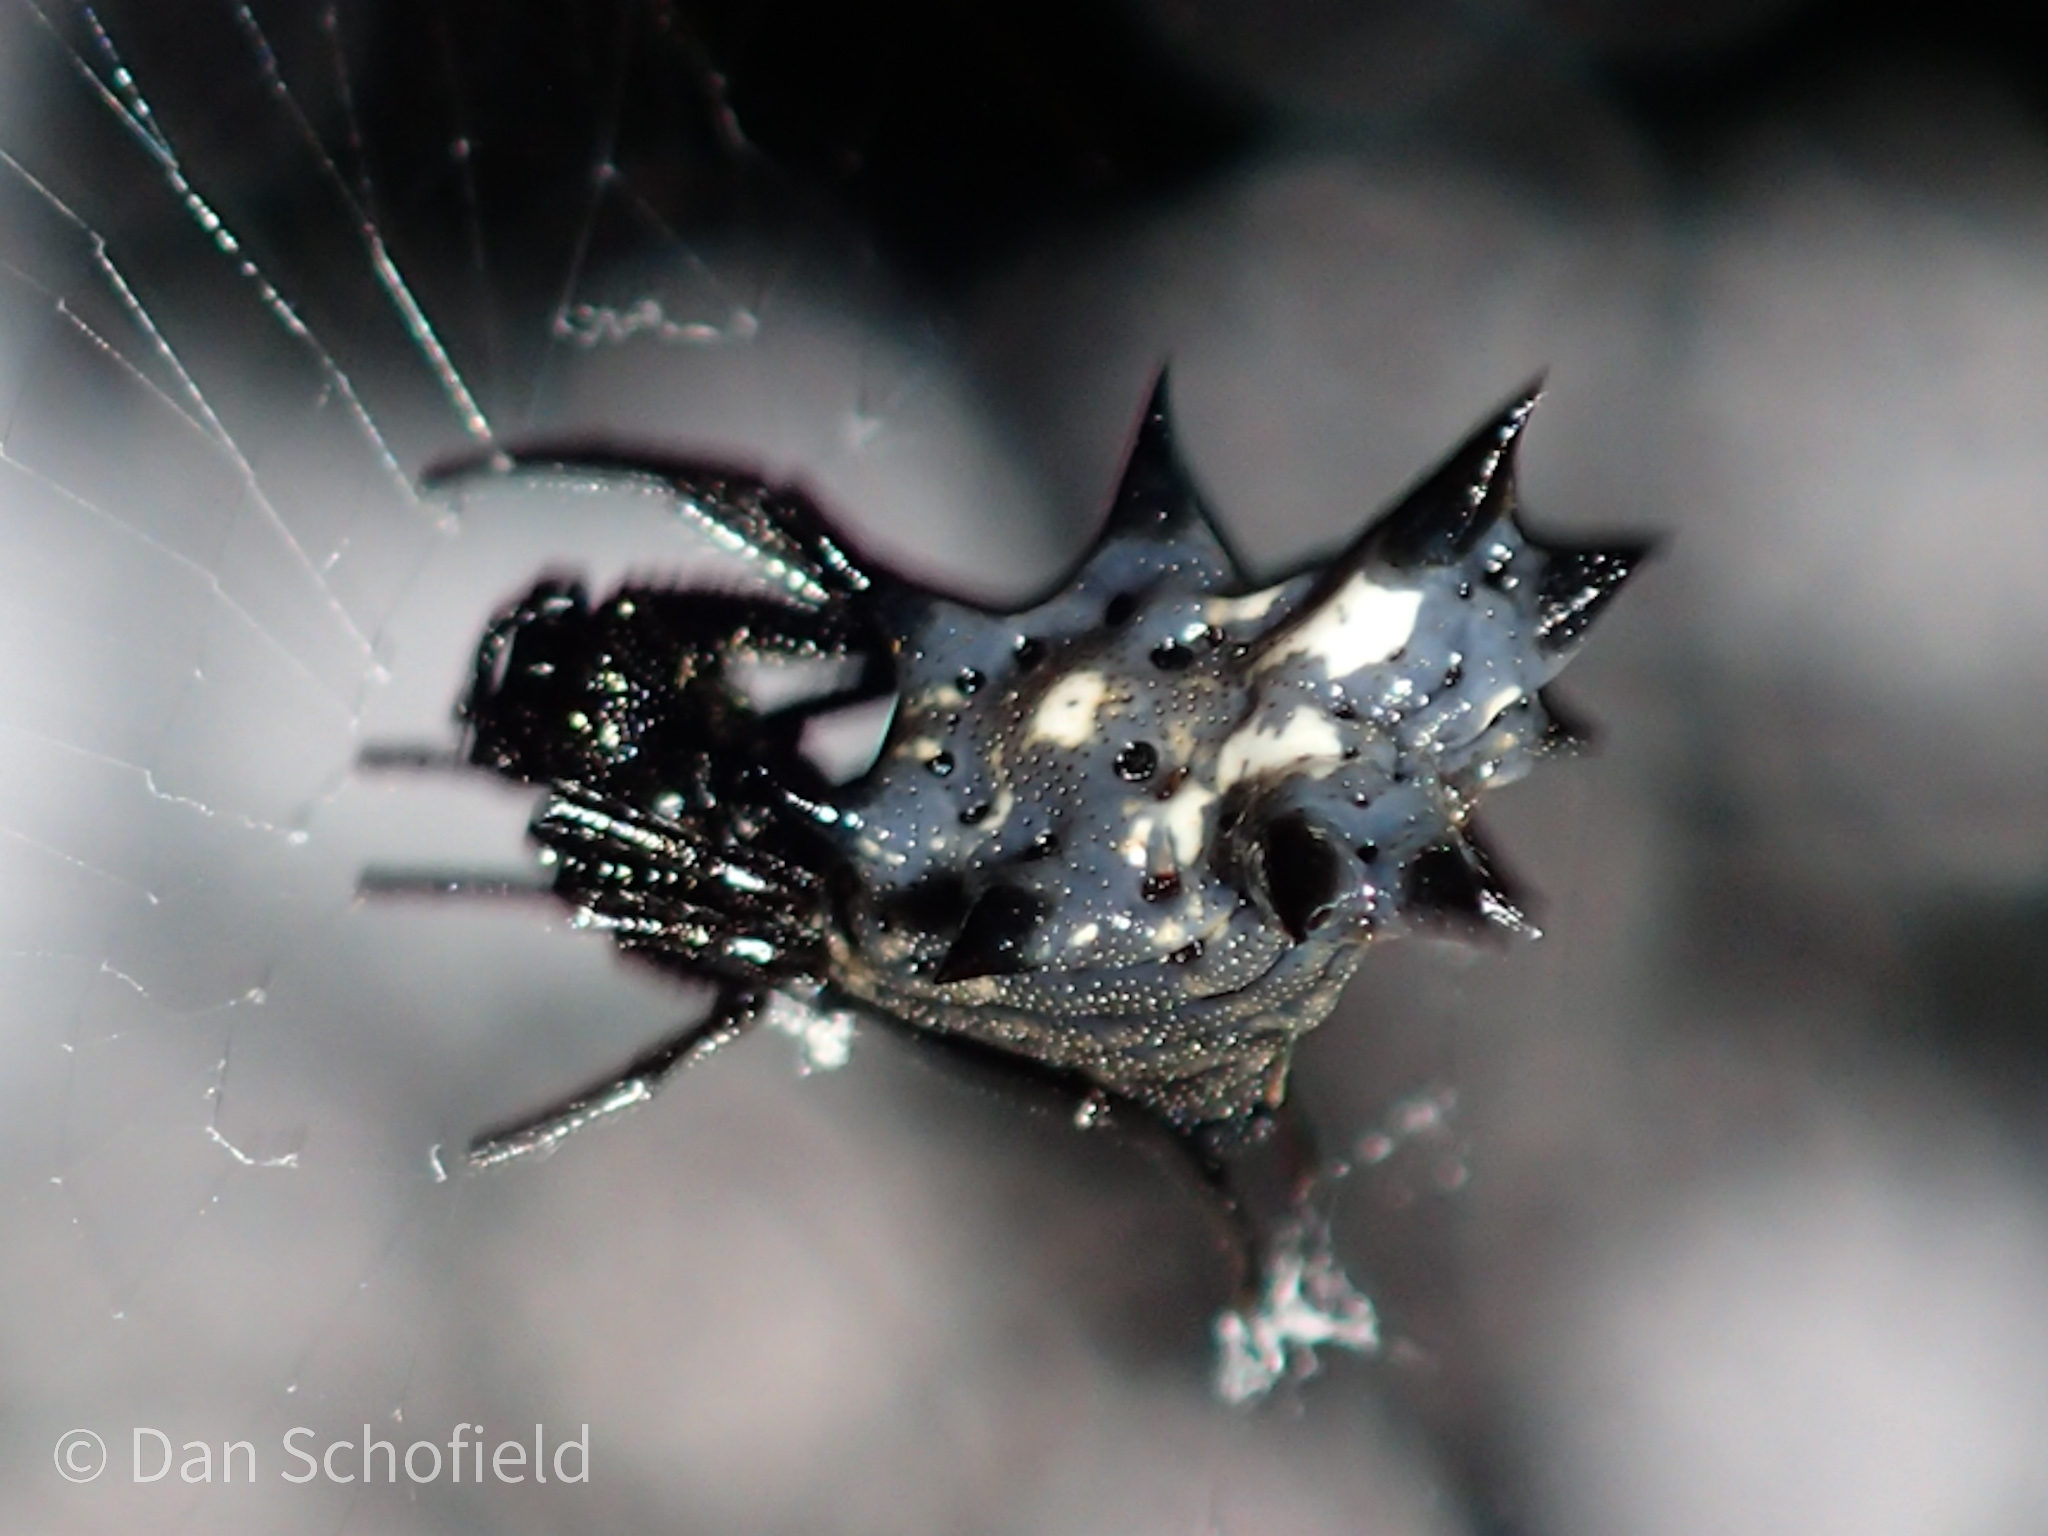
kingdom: Animalia
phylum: Arthropoda
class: Arachnida
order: Araneae
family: Araneidae
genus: Micrathena
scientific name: Micrathena gracilis
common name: Orb weavers
